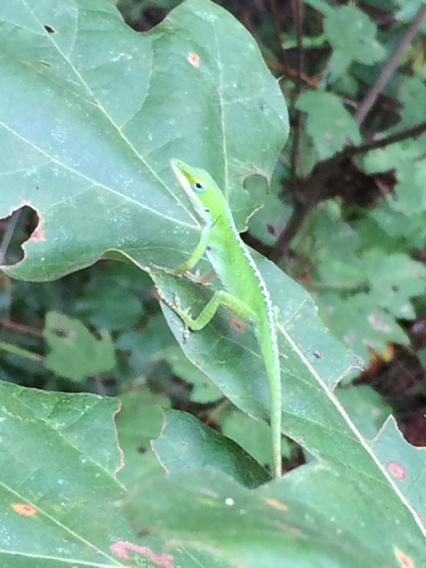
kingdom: Animalia
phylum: Chordata
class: Squamata
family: Dactyloidae
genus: Anolis
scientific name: Anolis carolinensis
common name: Green anole
